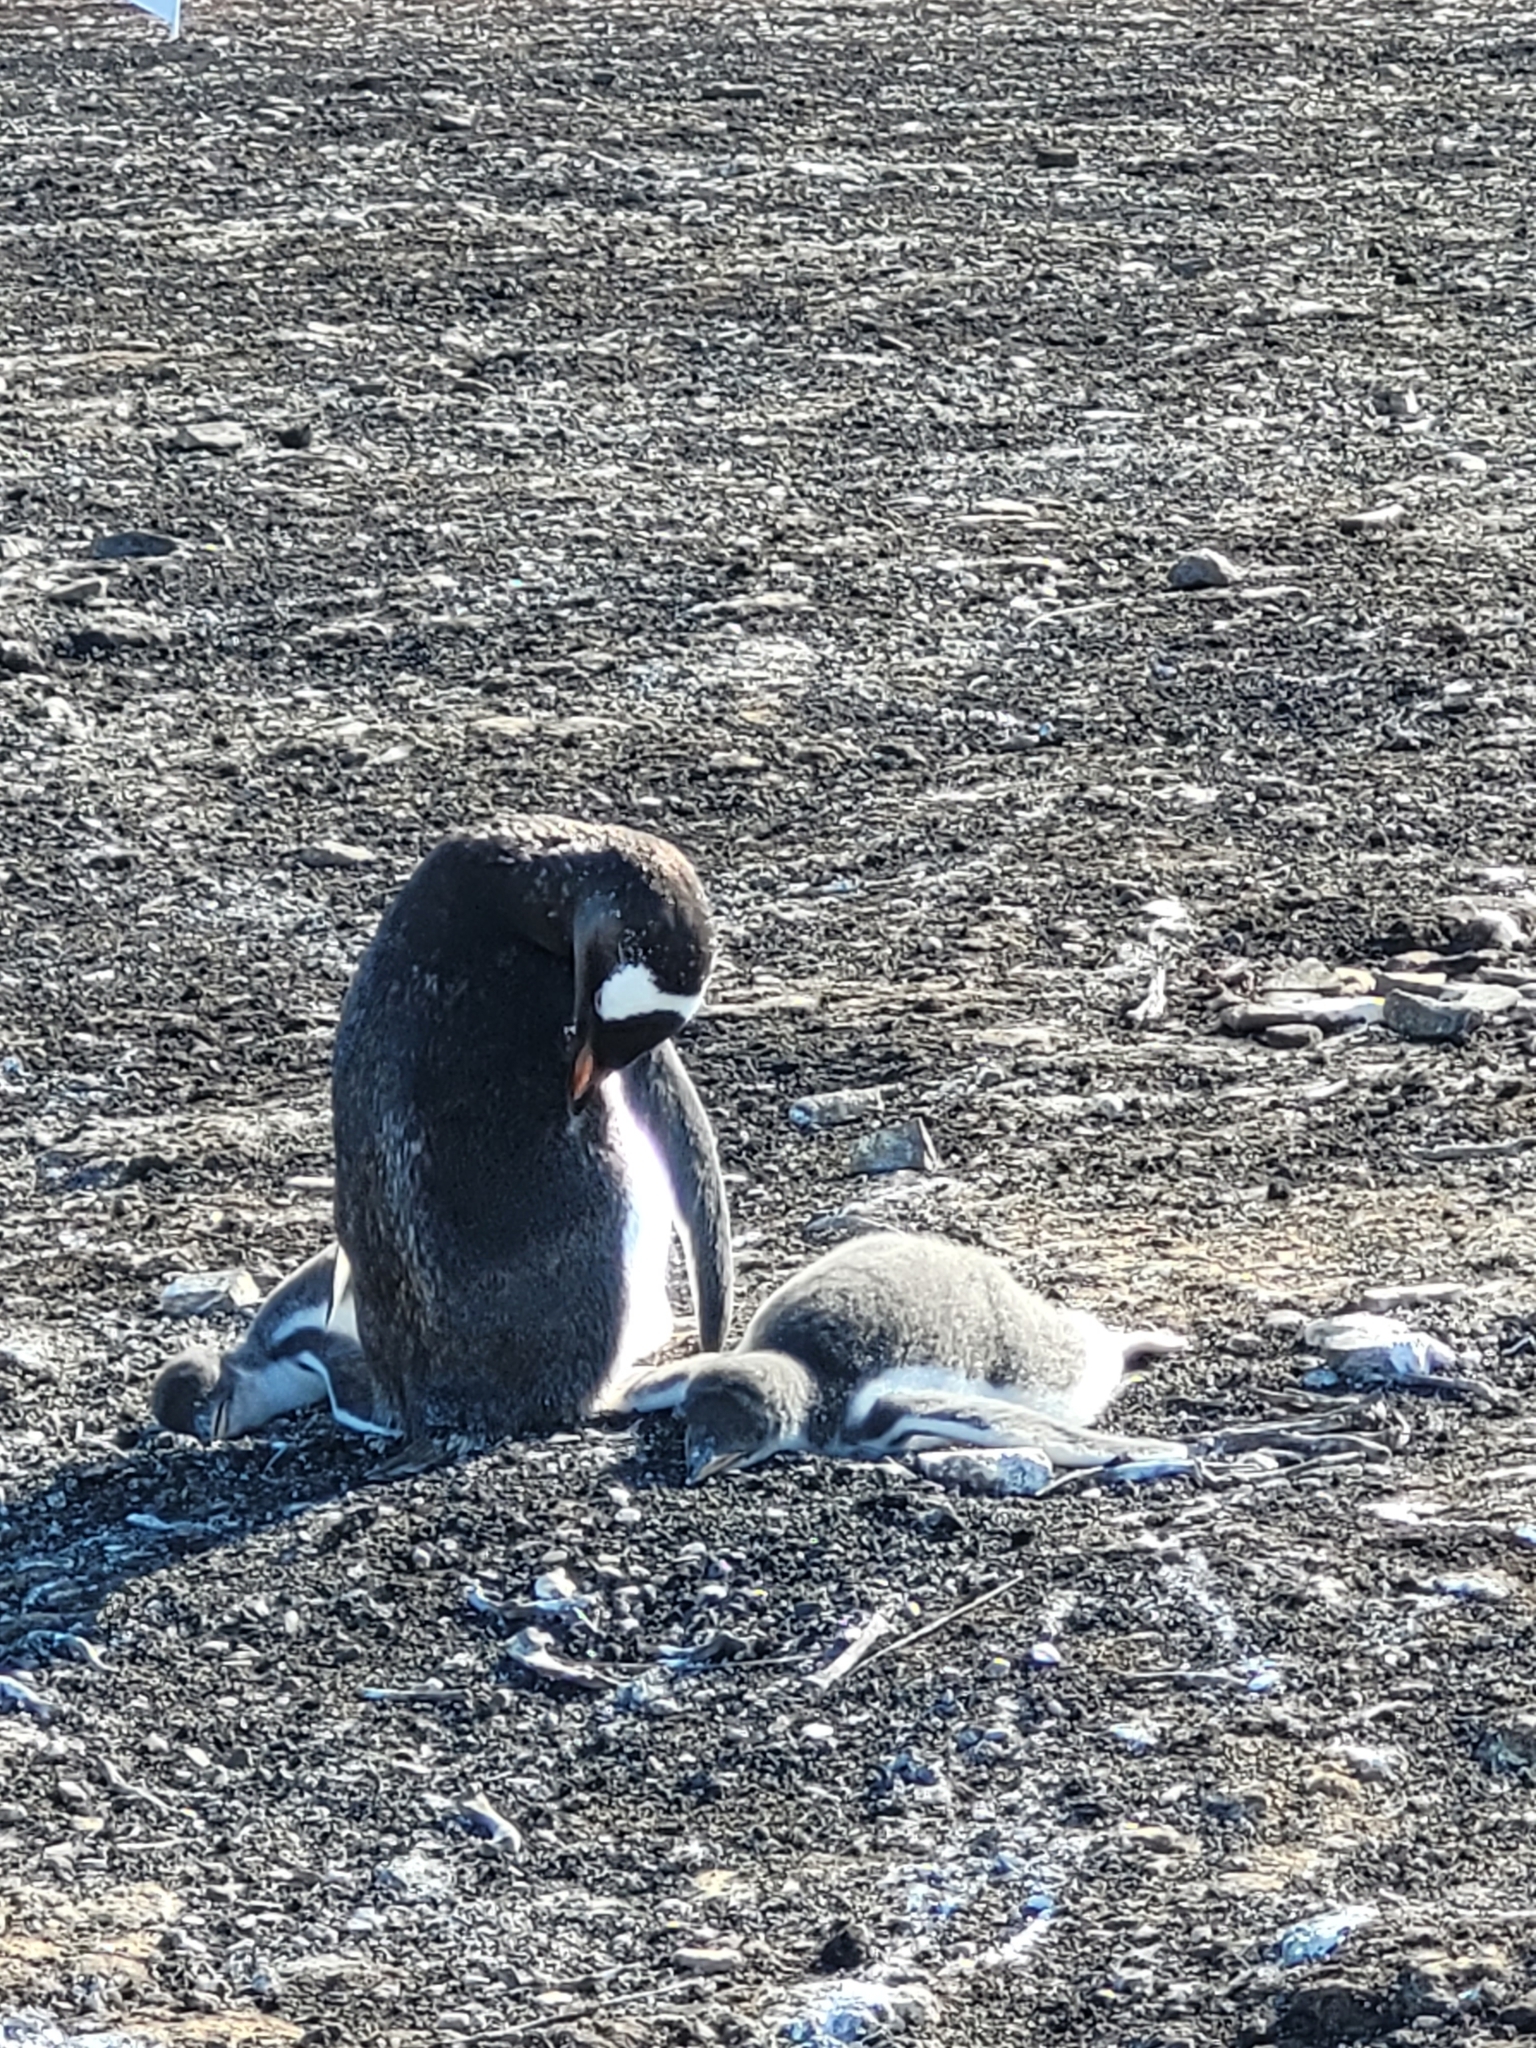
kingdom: Animalia
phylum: Chordata
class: Aves
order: Sphenisciformes
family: Spheniscidae
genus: Pygoscelis
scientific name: Pygoscelis papua
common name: Gentoo penguin
